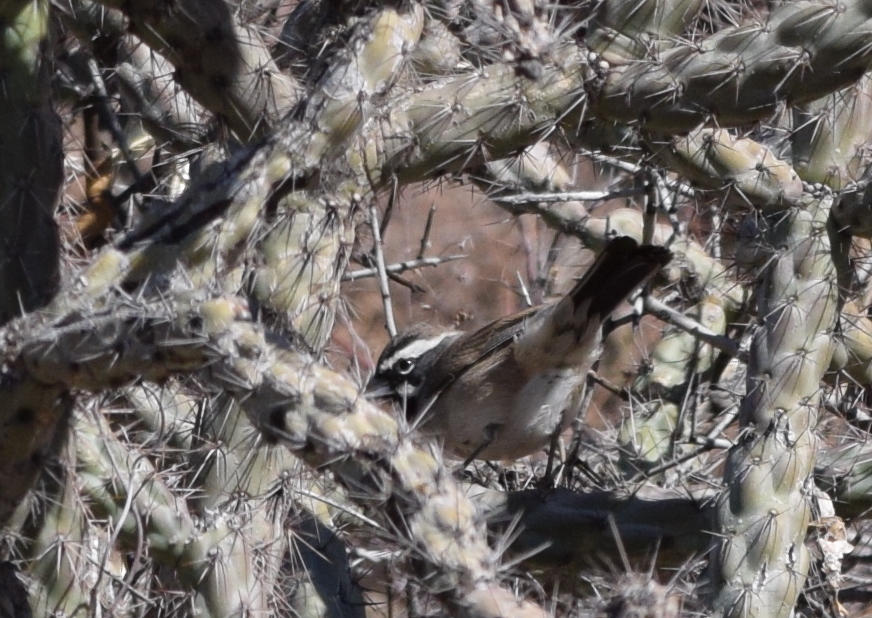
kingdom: Animalia
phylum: Chordata
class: Aves
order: Passeriformes
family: Passerellidae
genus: Amphispiza
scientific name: Amphispiza bilineata
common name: Black-throated sparrow
